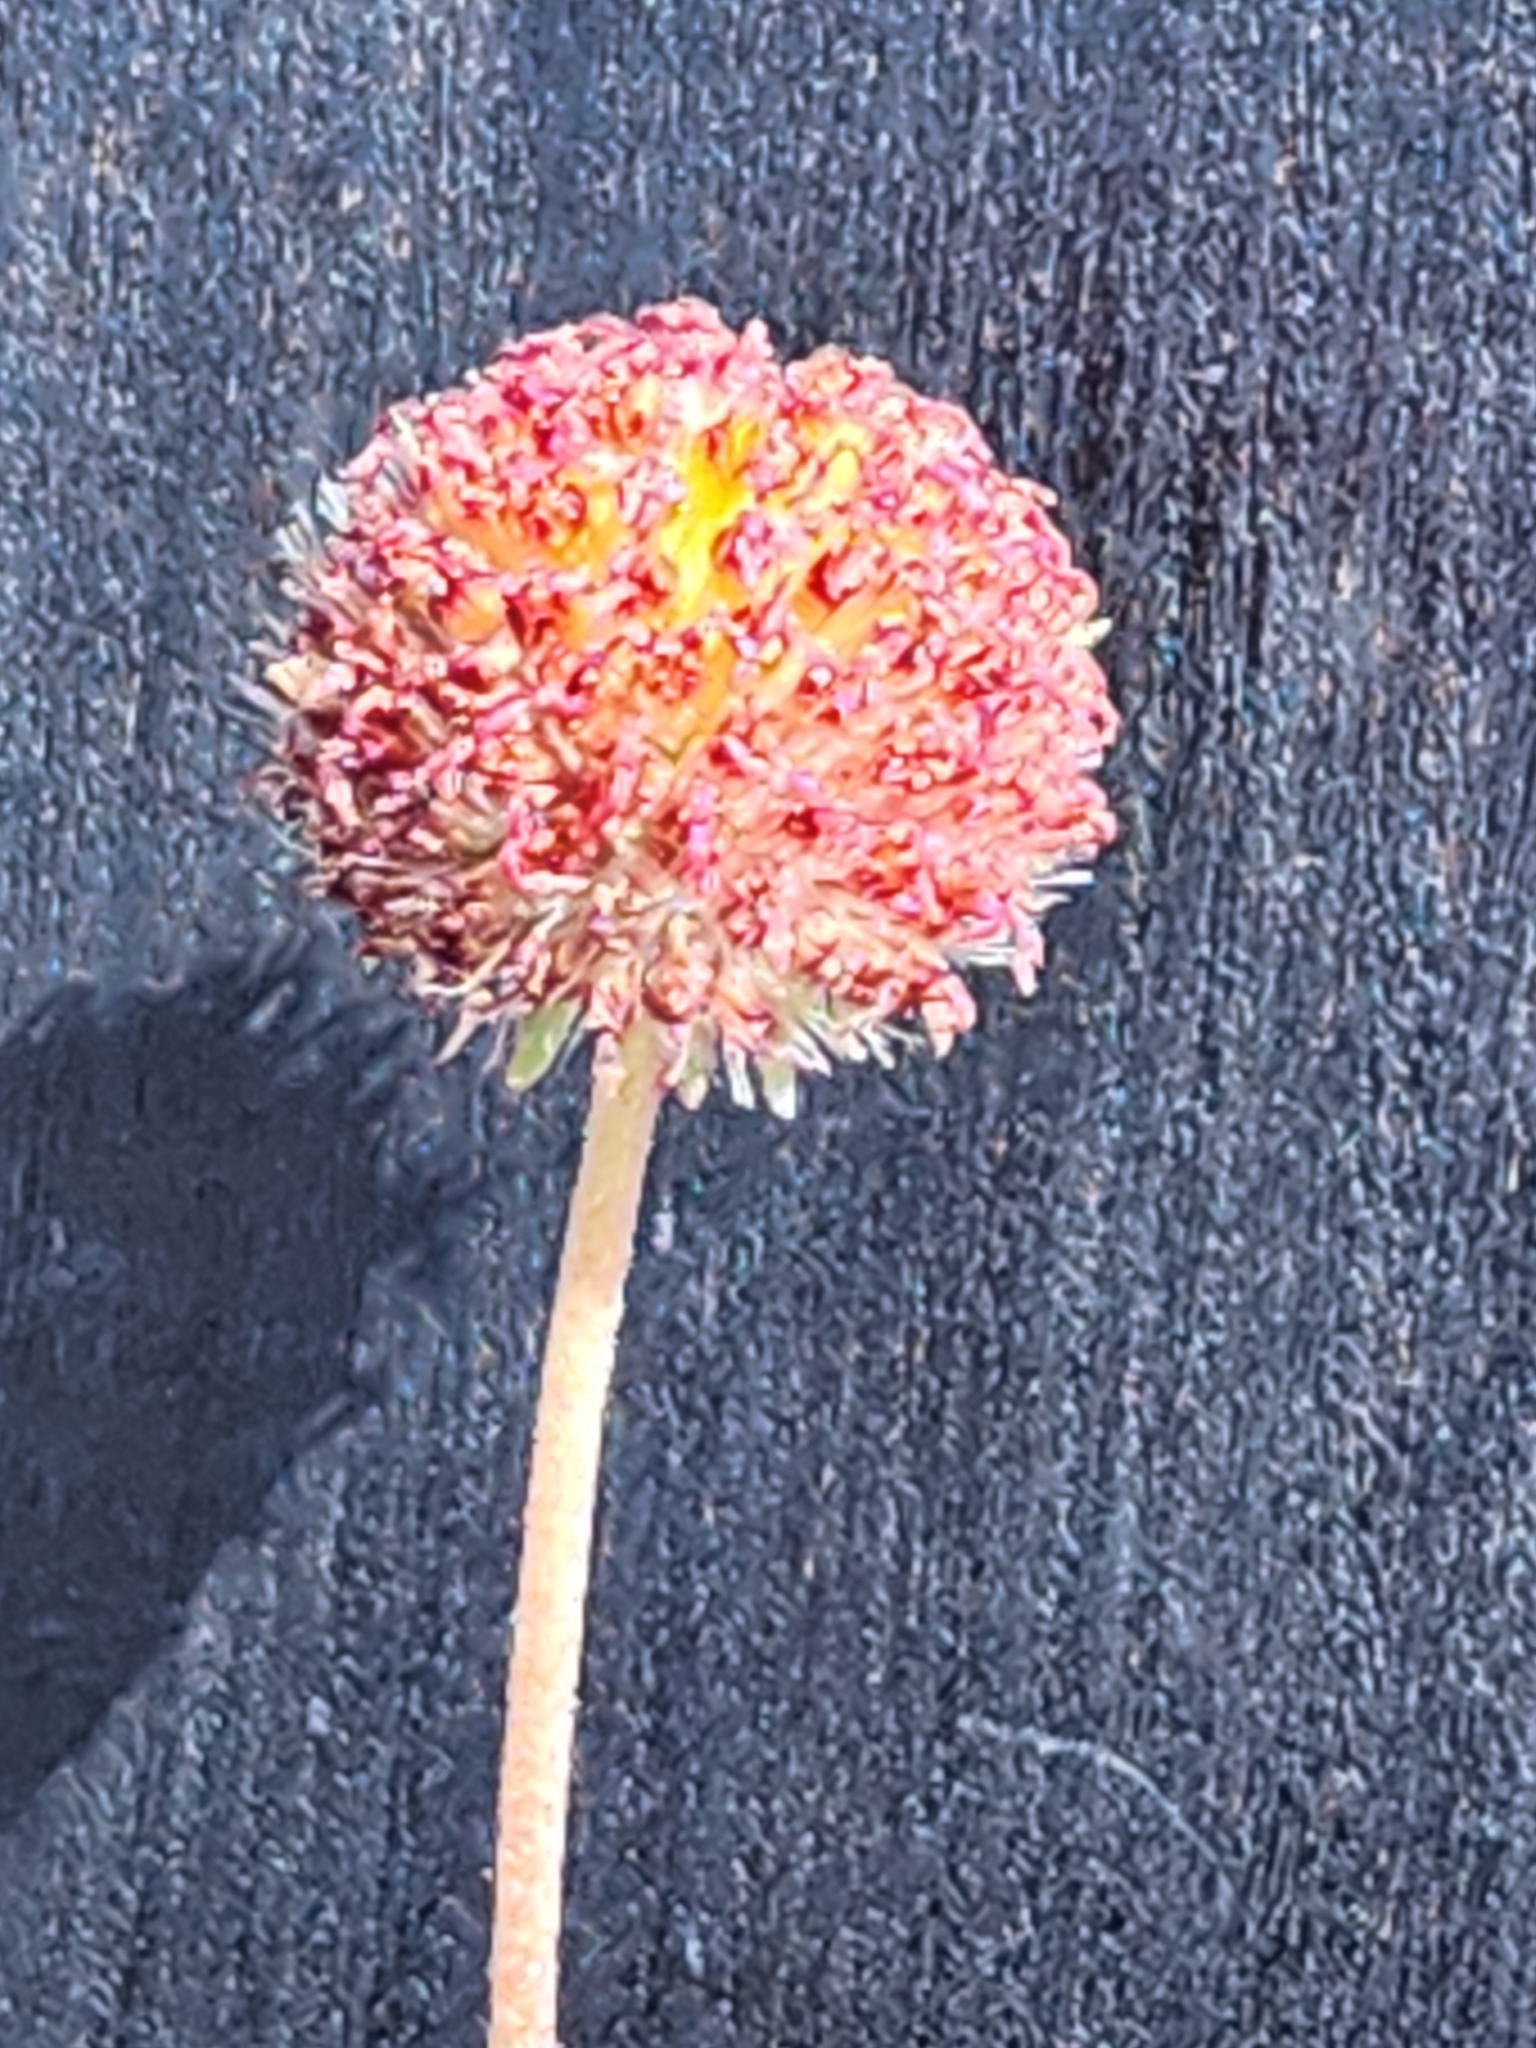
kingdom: Plantae
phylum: Tracheophyta
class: Magnoliopsida
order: Asterales
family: Asteraceae
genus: Gaillardia
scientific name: Gaillardia suavis
